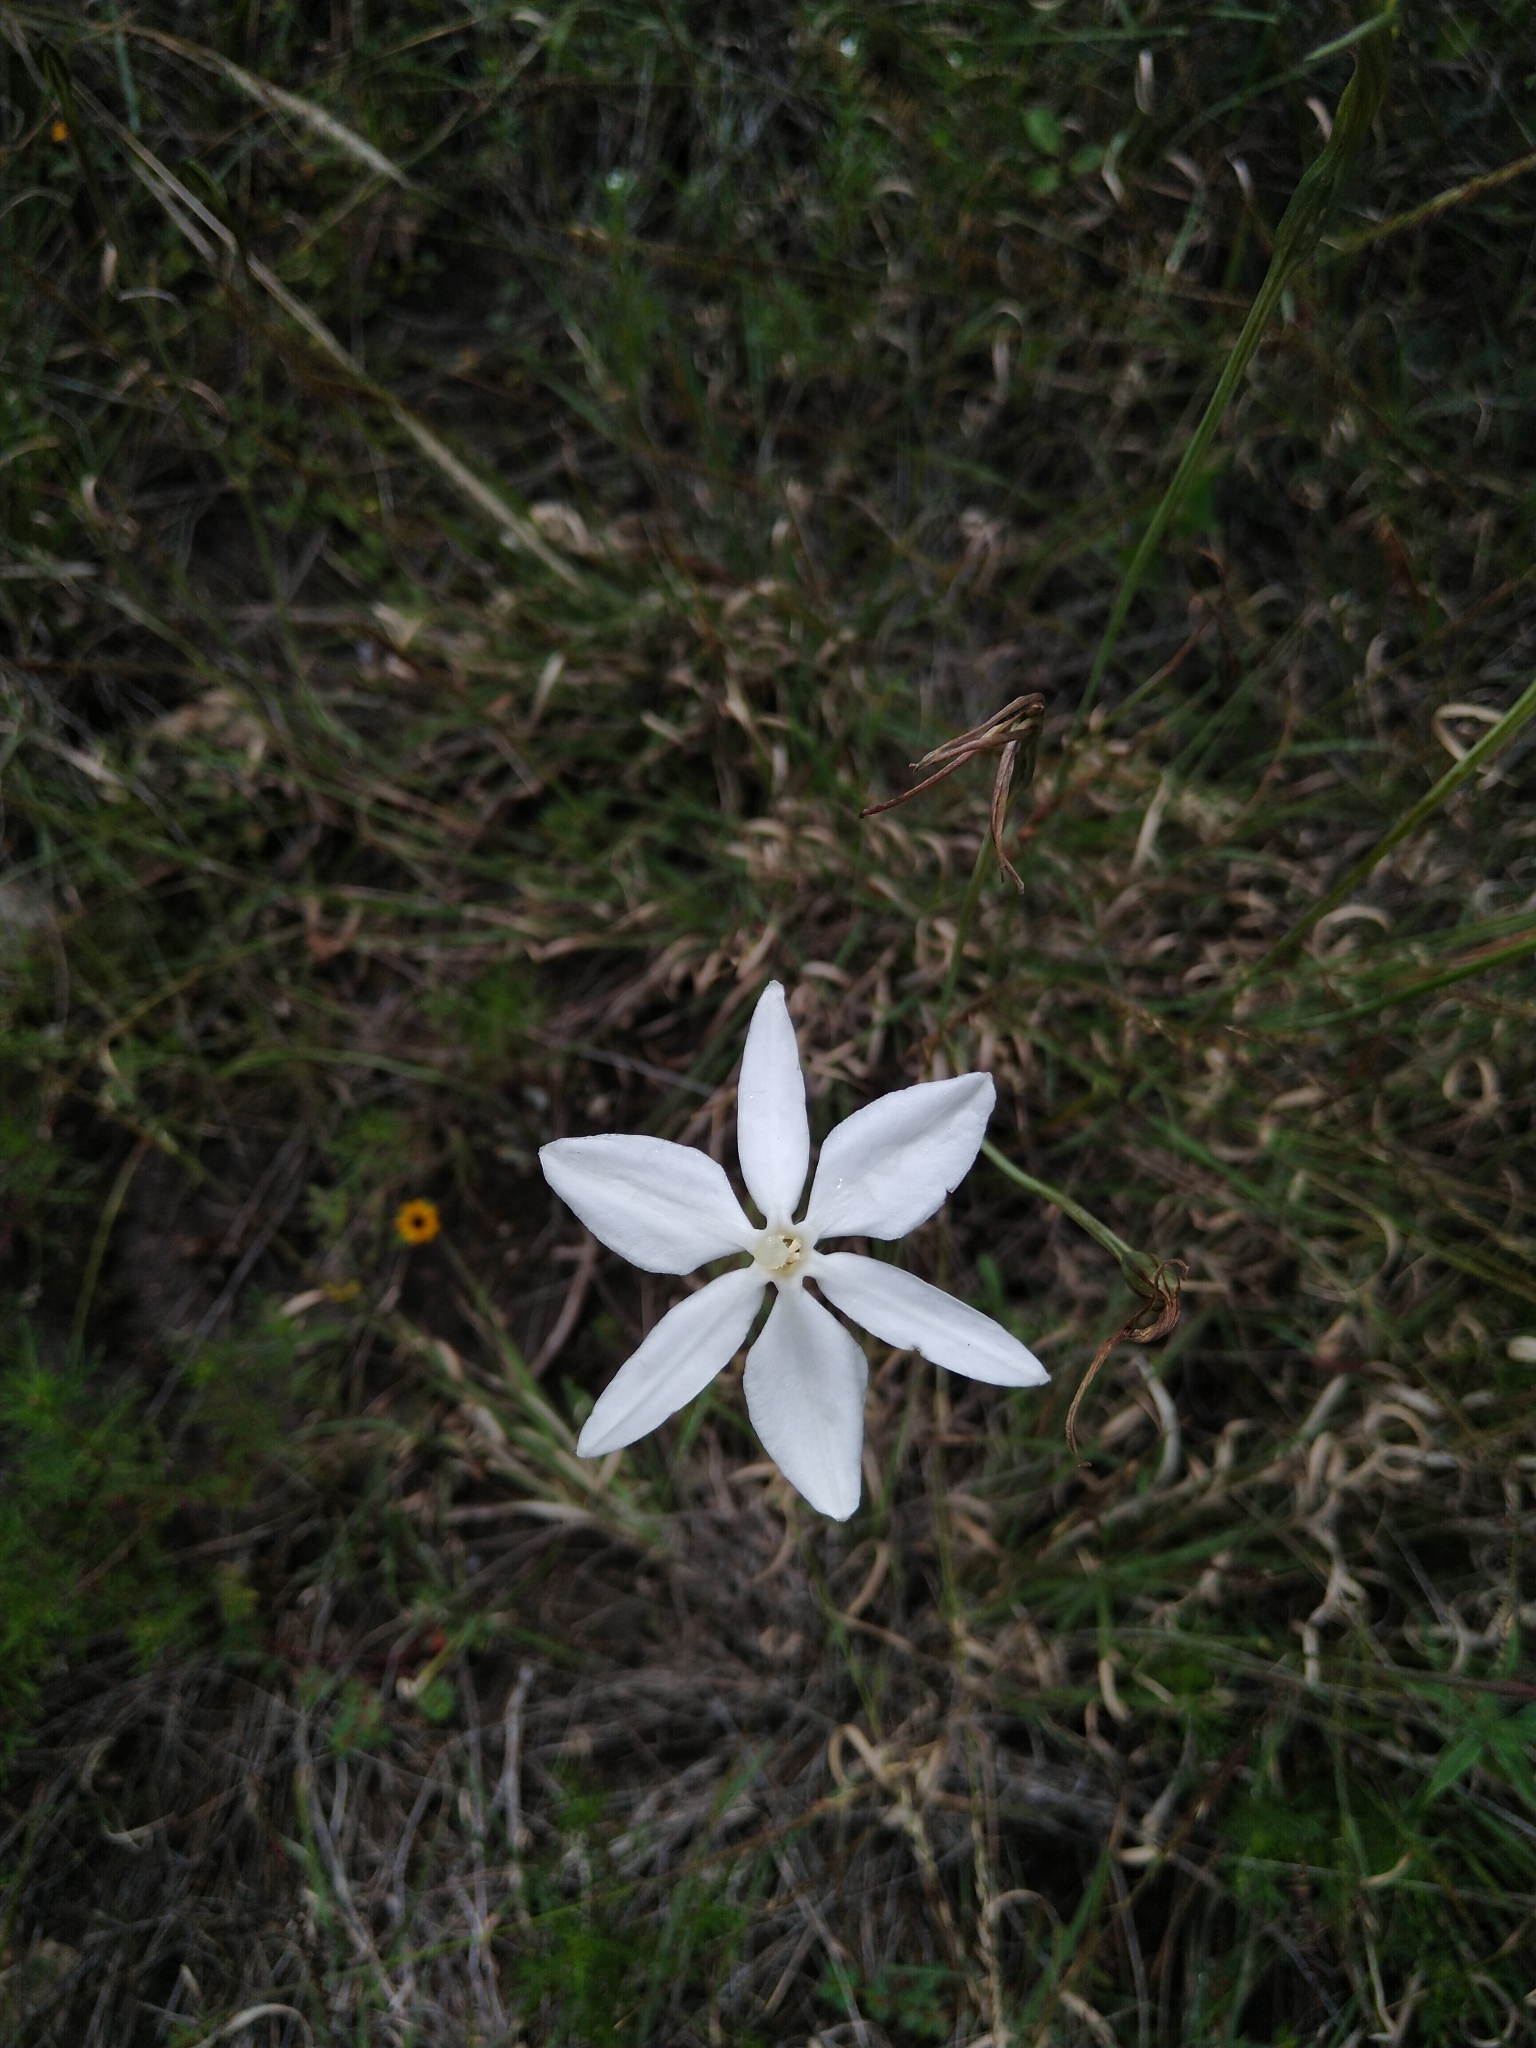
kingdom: Plantae
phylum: Tracheophyta
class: Liliopsida
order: Asparagales
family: Asparagaceae
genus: Milla
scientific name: Milla biflora
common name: Mexican-star
